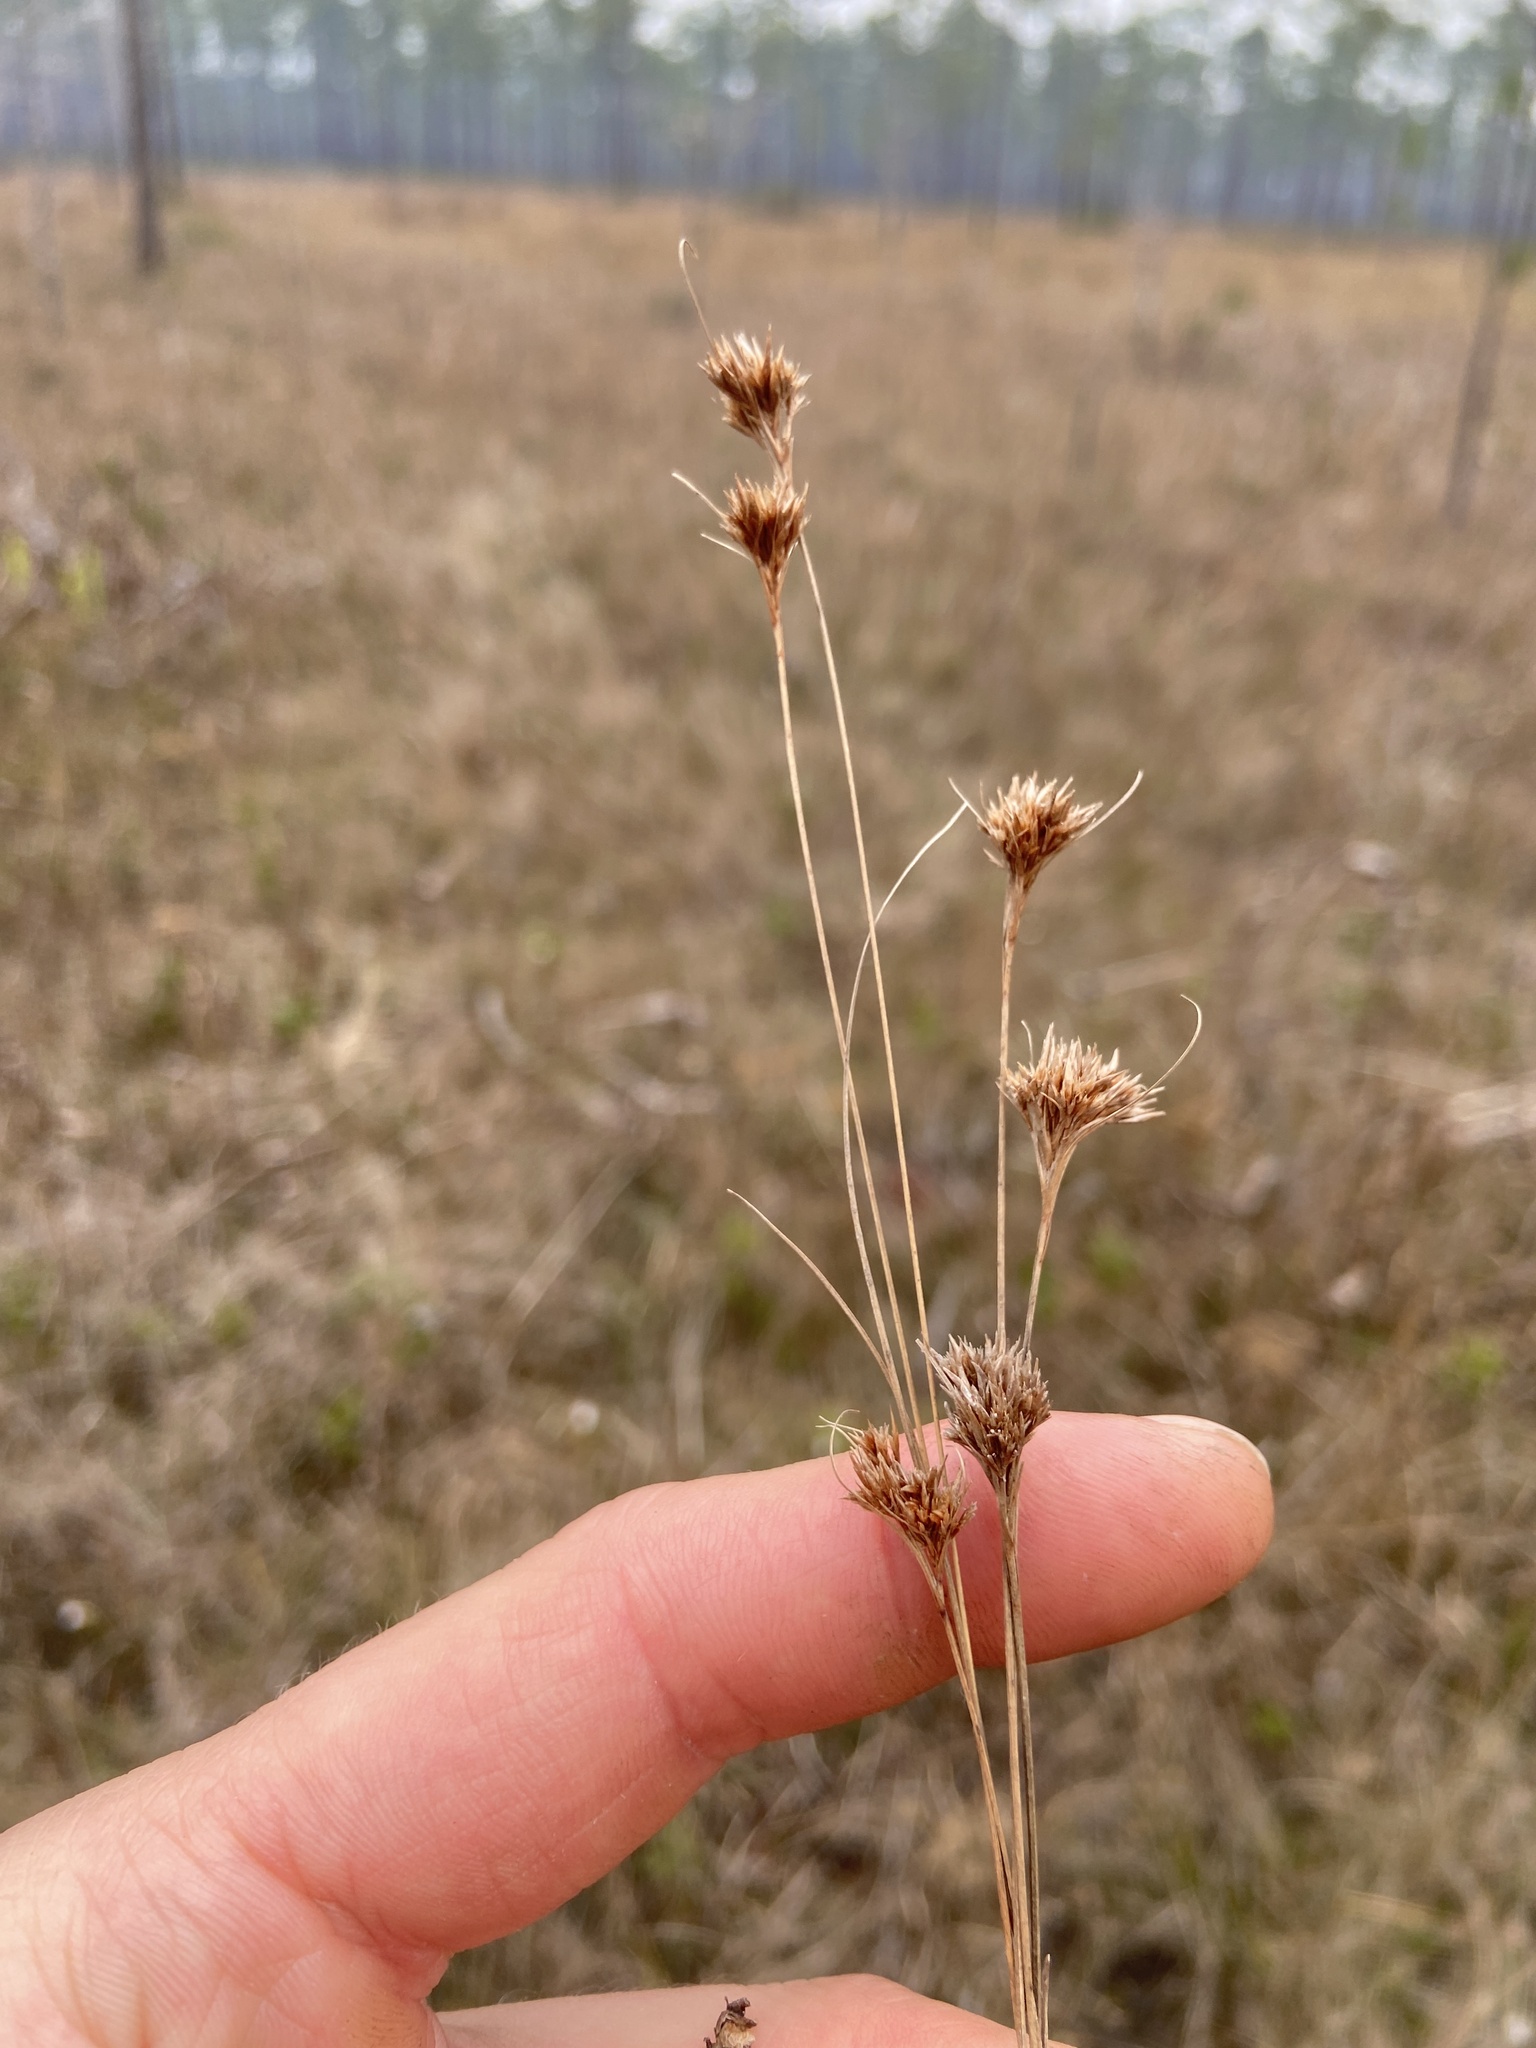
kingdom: Plantae
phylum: Tracheophyta
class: Liliopsida
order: Poales
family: Cyperaceae
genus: Rhynchospora
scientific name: Rhynchospora macra
